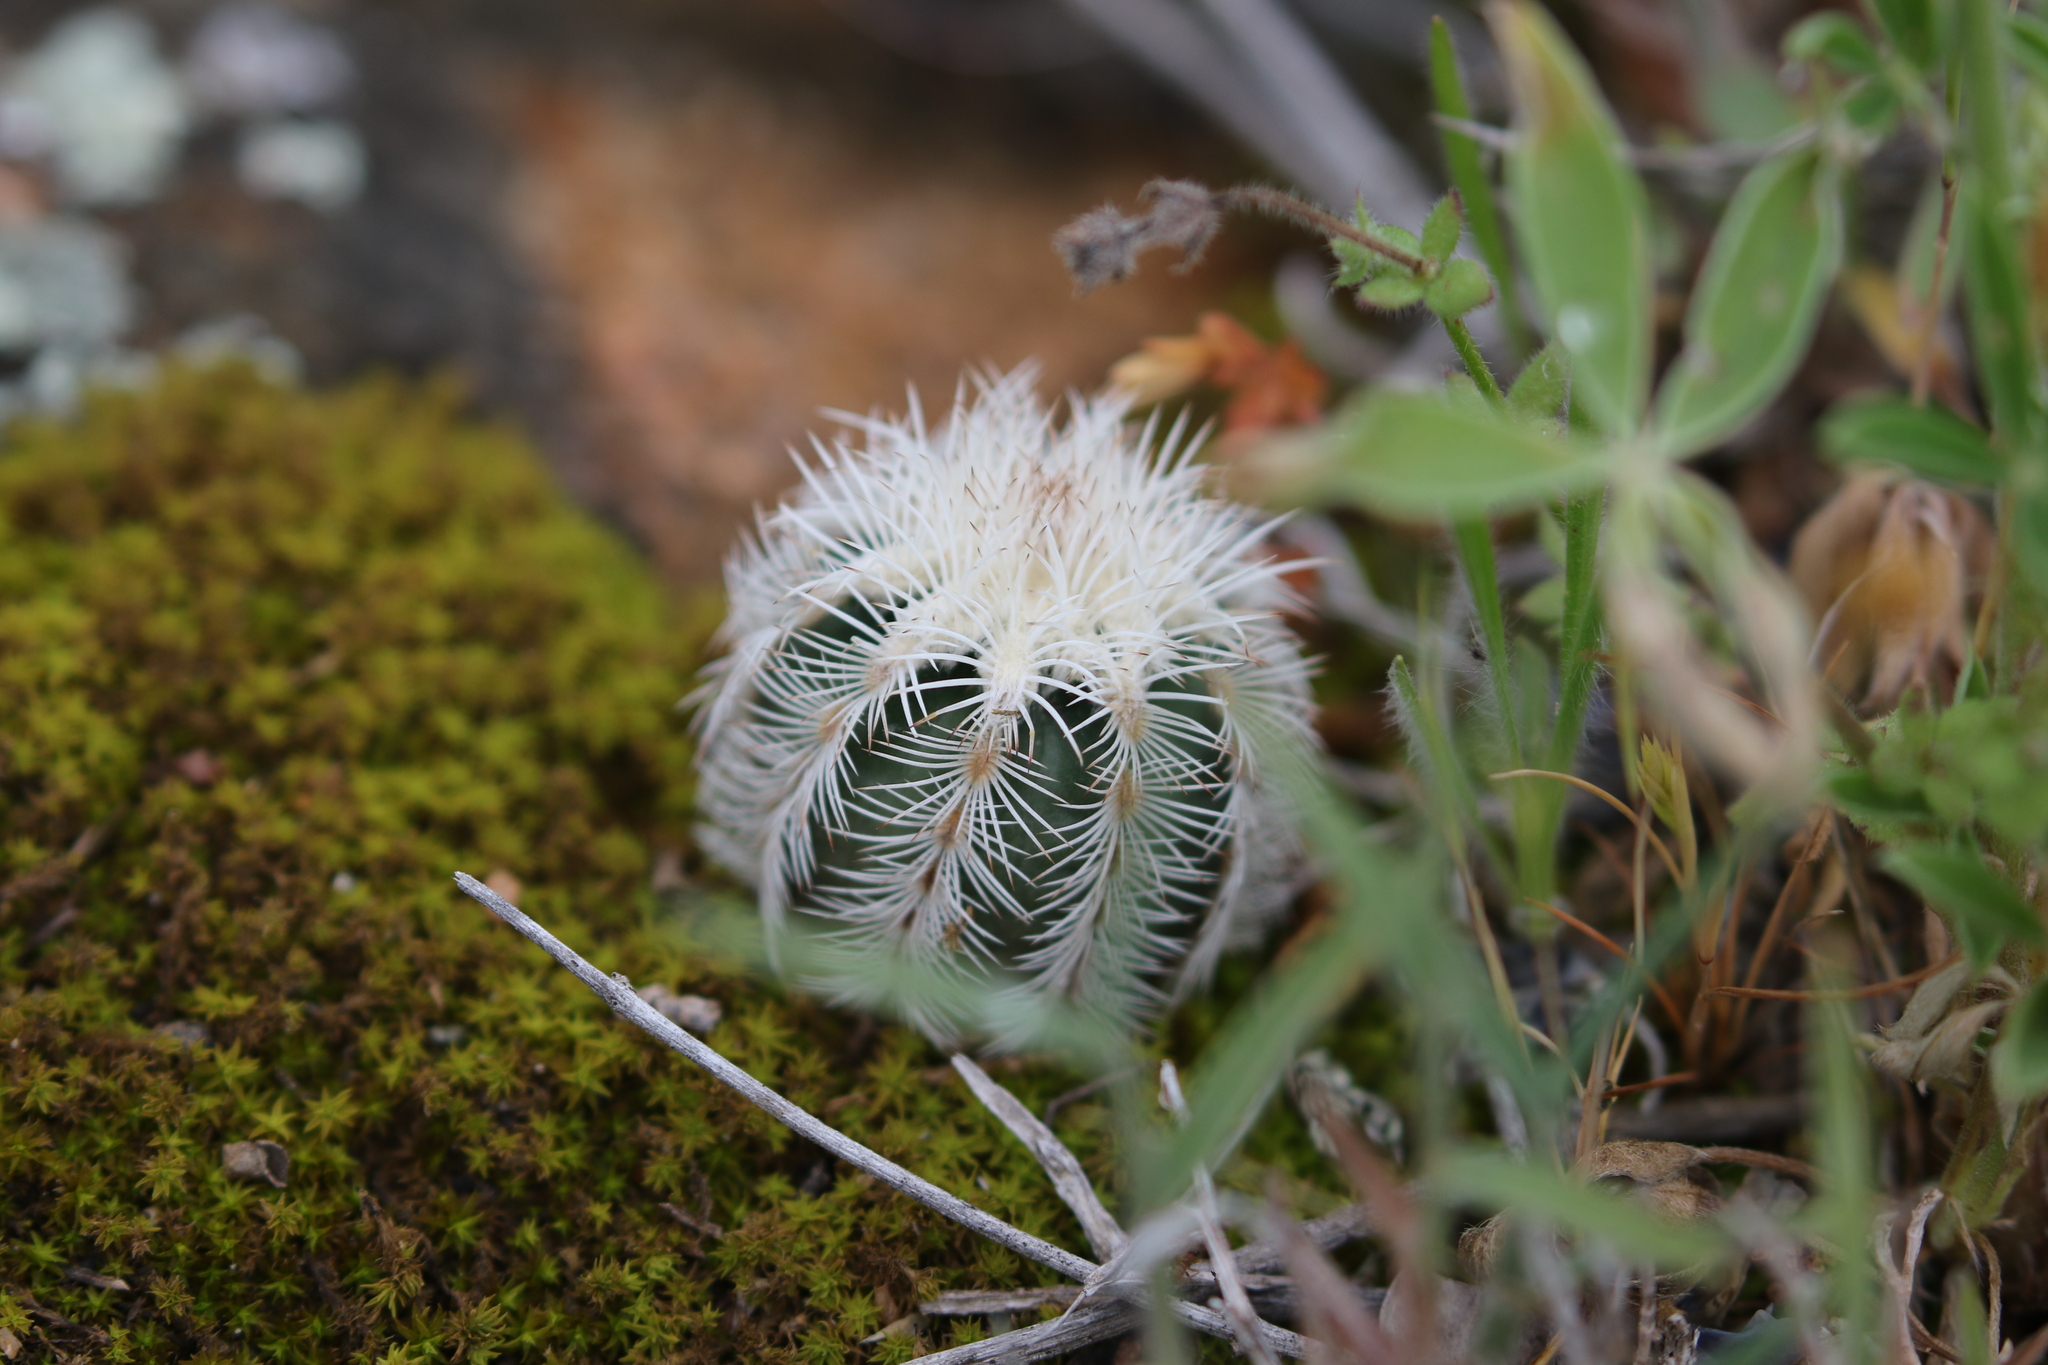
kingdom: Plantae
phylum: Tracheophyta
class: Magnoliopsida
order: Caryophyllales
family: Cactaceae
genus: Echinocereus
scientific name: Echinocereus reichenbachii
